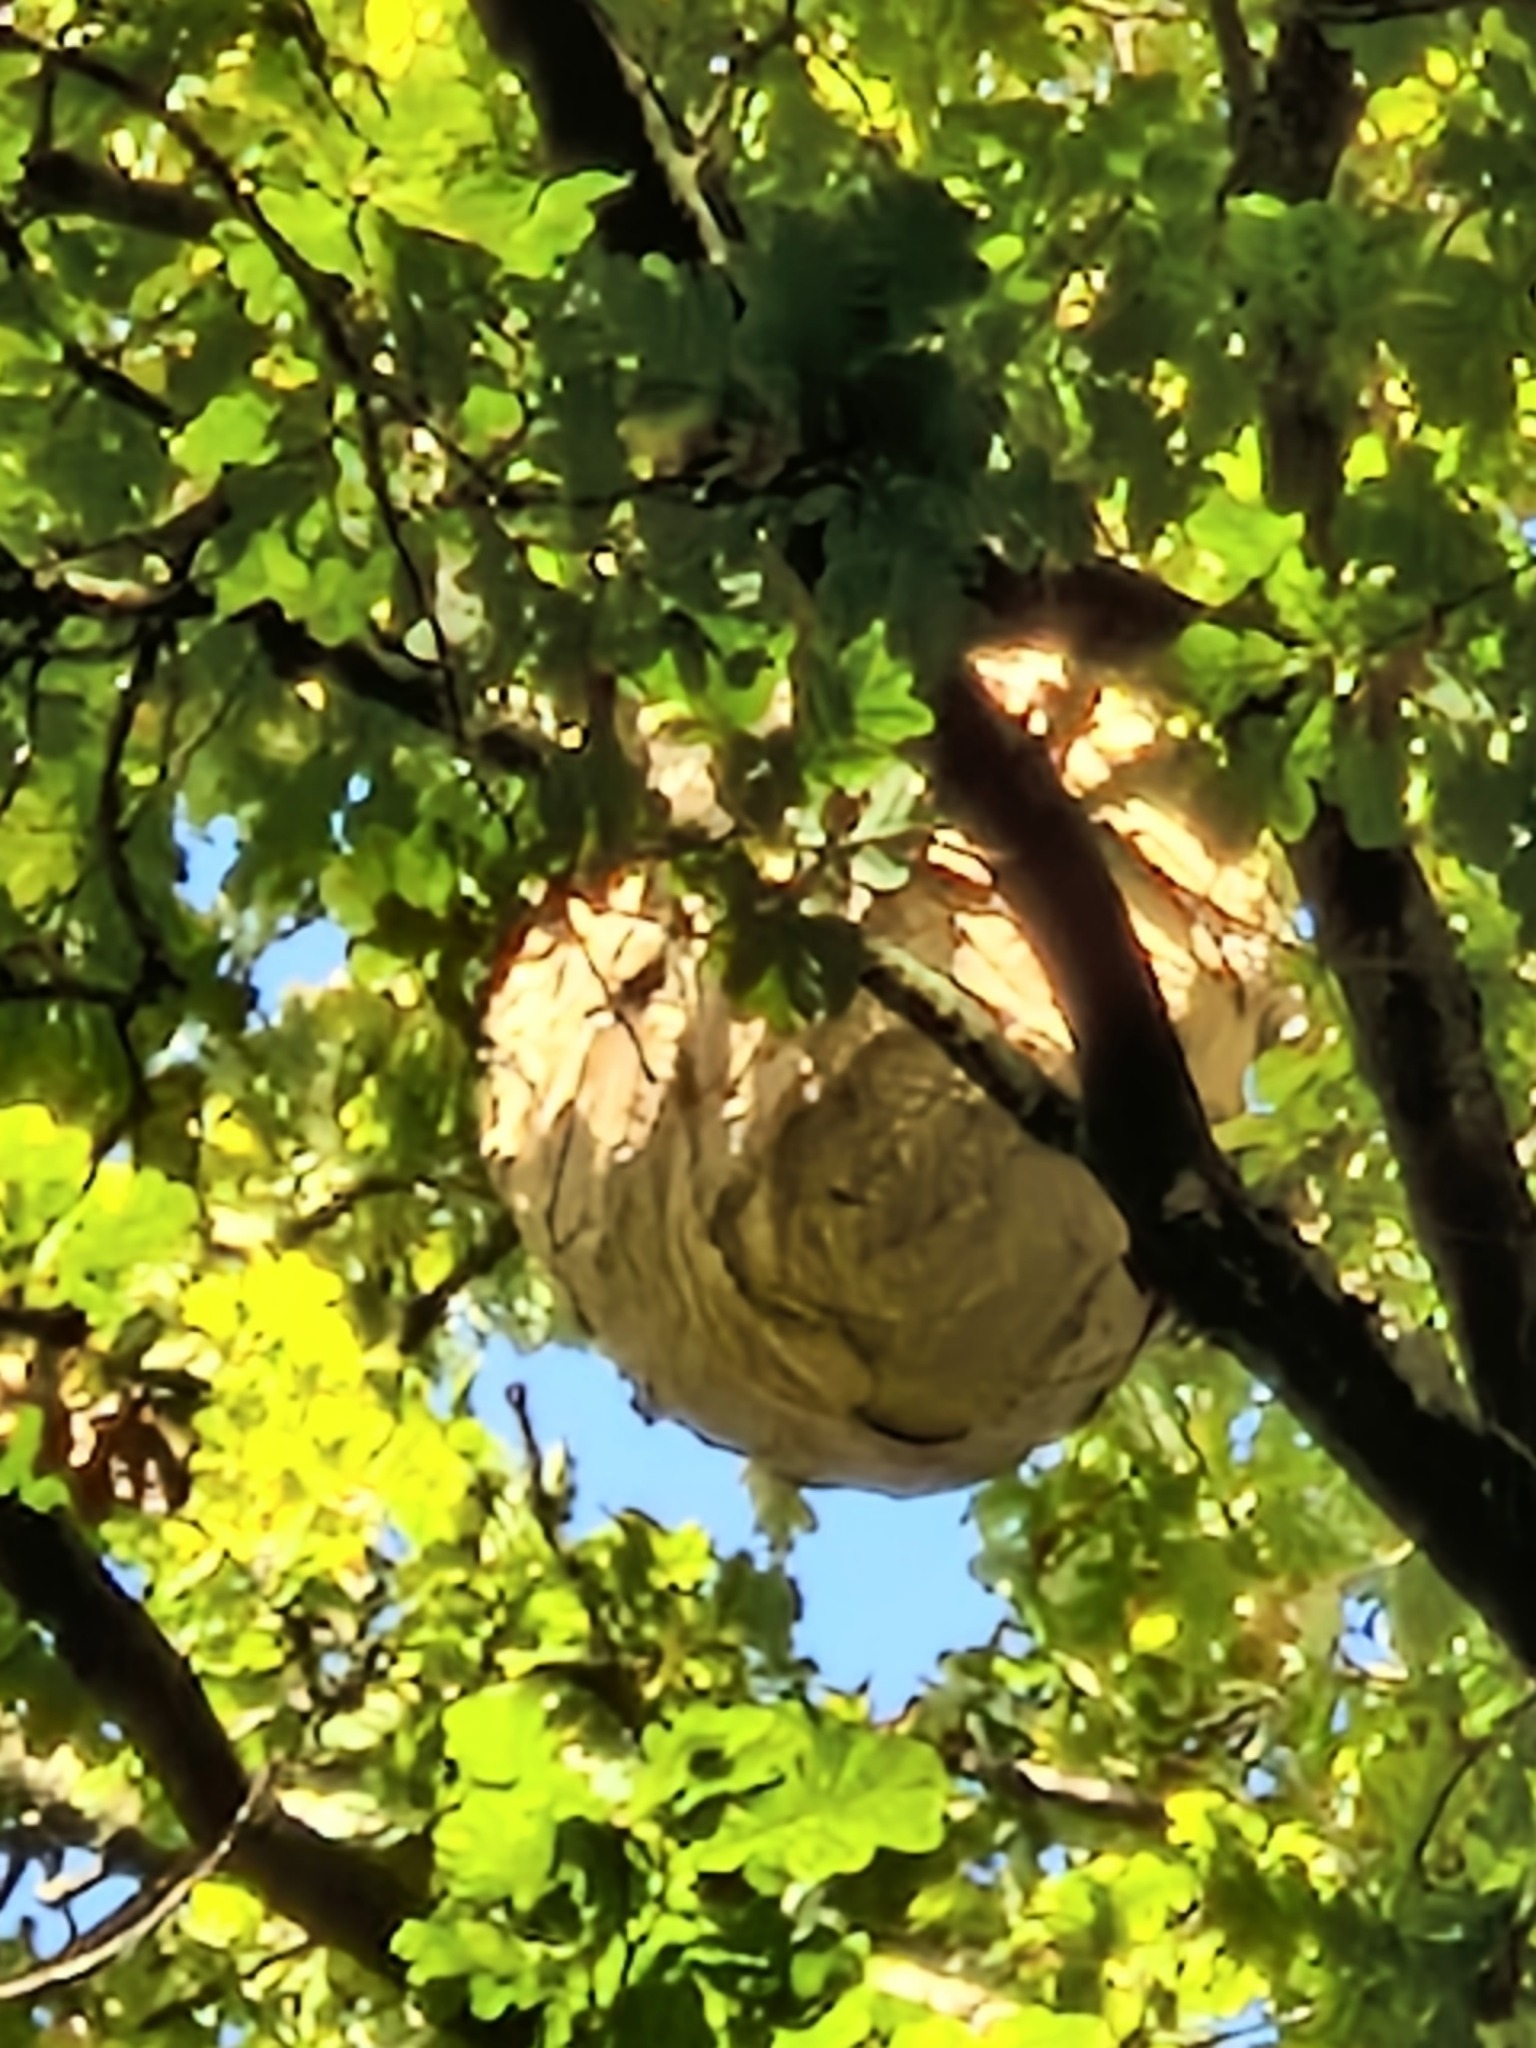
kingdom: Animalia
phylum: Arthropoda
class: Insecta
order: Hymenoptera
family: Vespidae
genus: Vespa
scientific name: Vespa velutina
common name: Asian hornet
